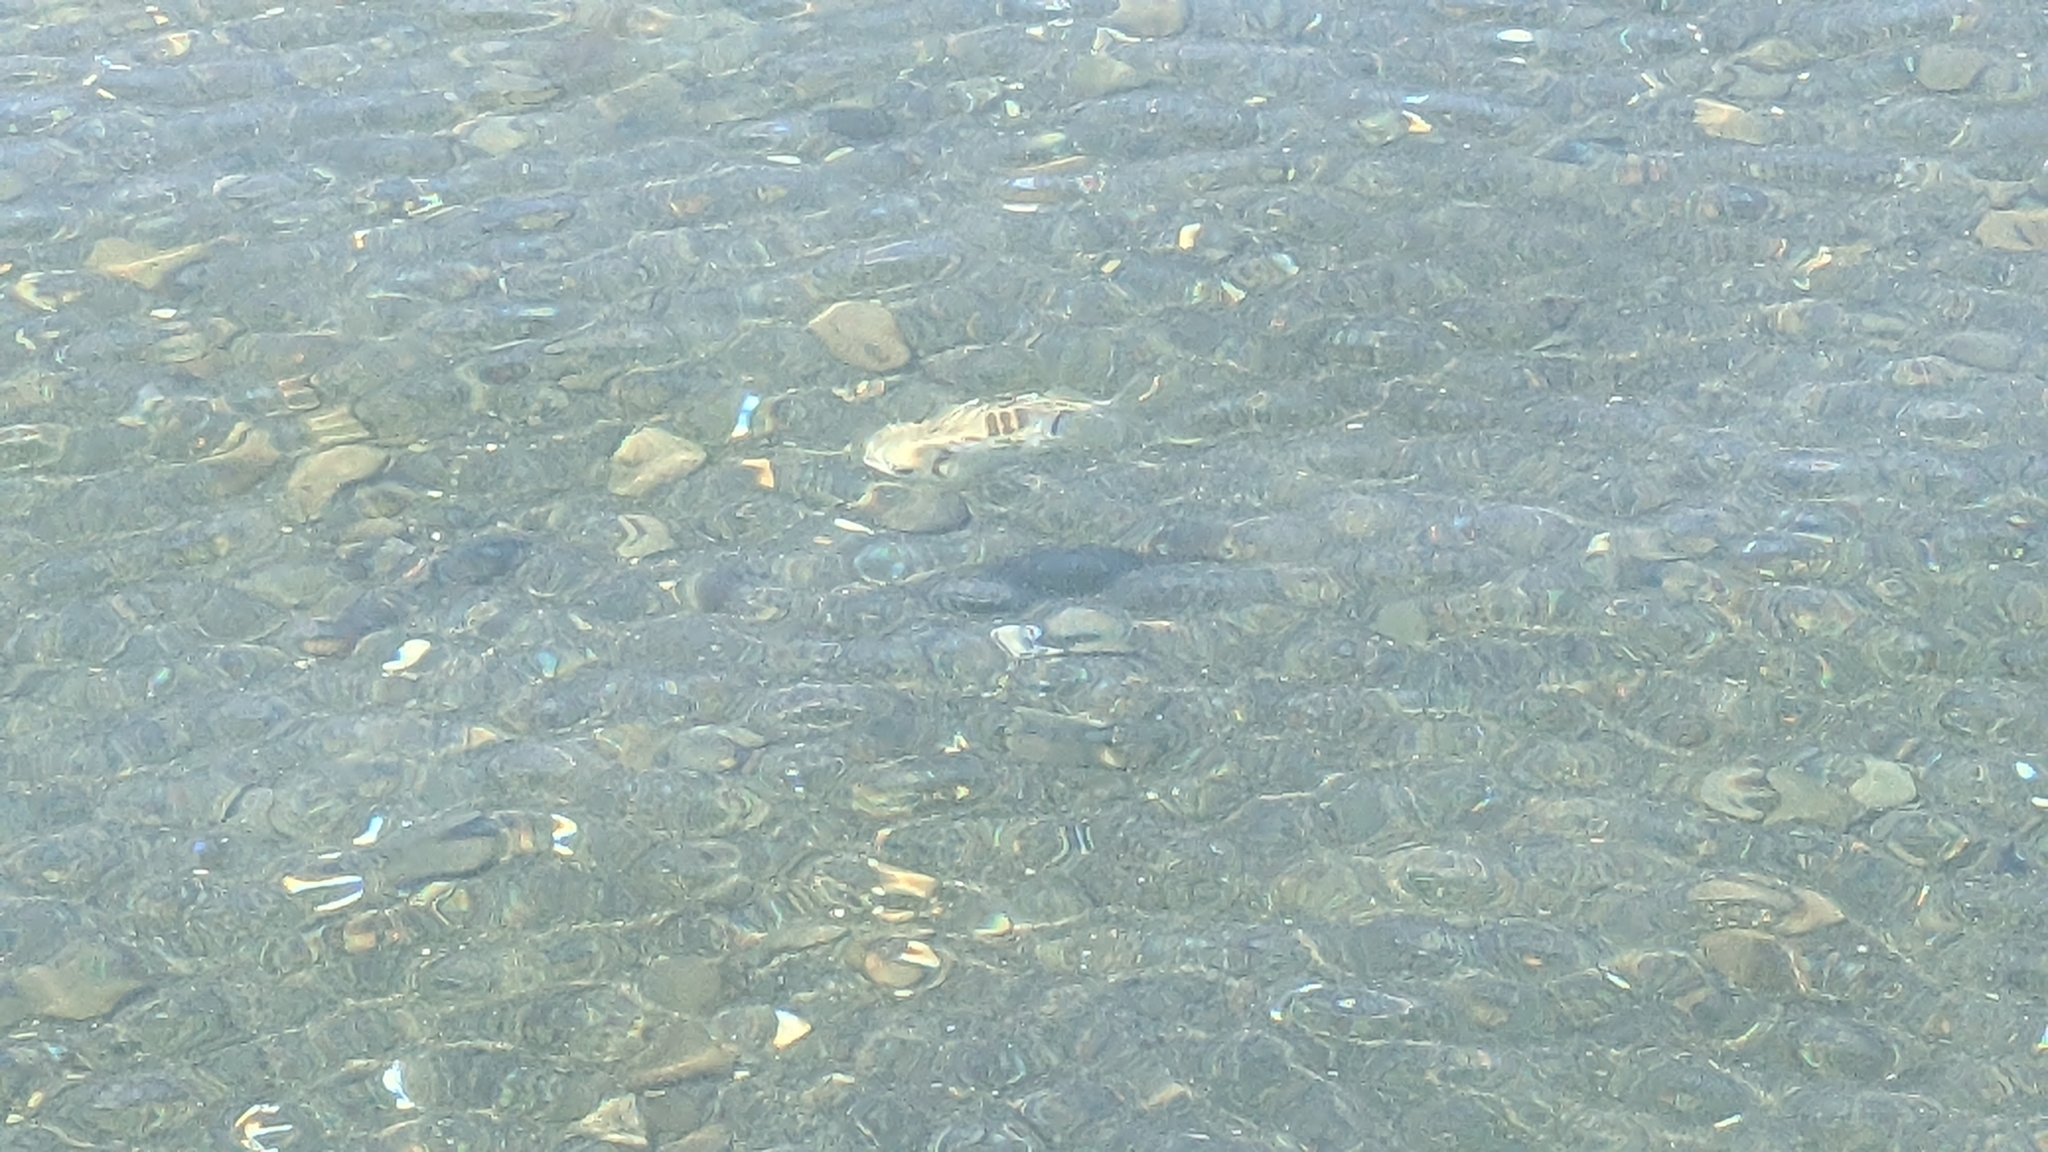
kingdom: Animalia
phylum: Chordata
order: Tetraodontiformes
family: Diodontidae
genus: Allomycterus
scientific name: Allomycterus pilatus
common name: No common name
